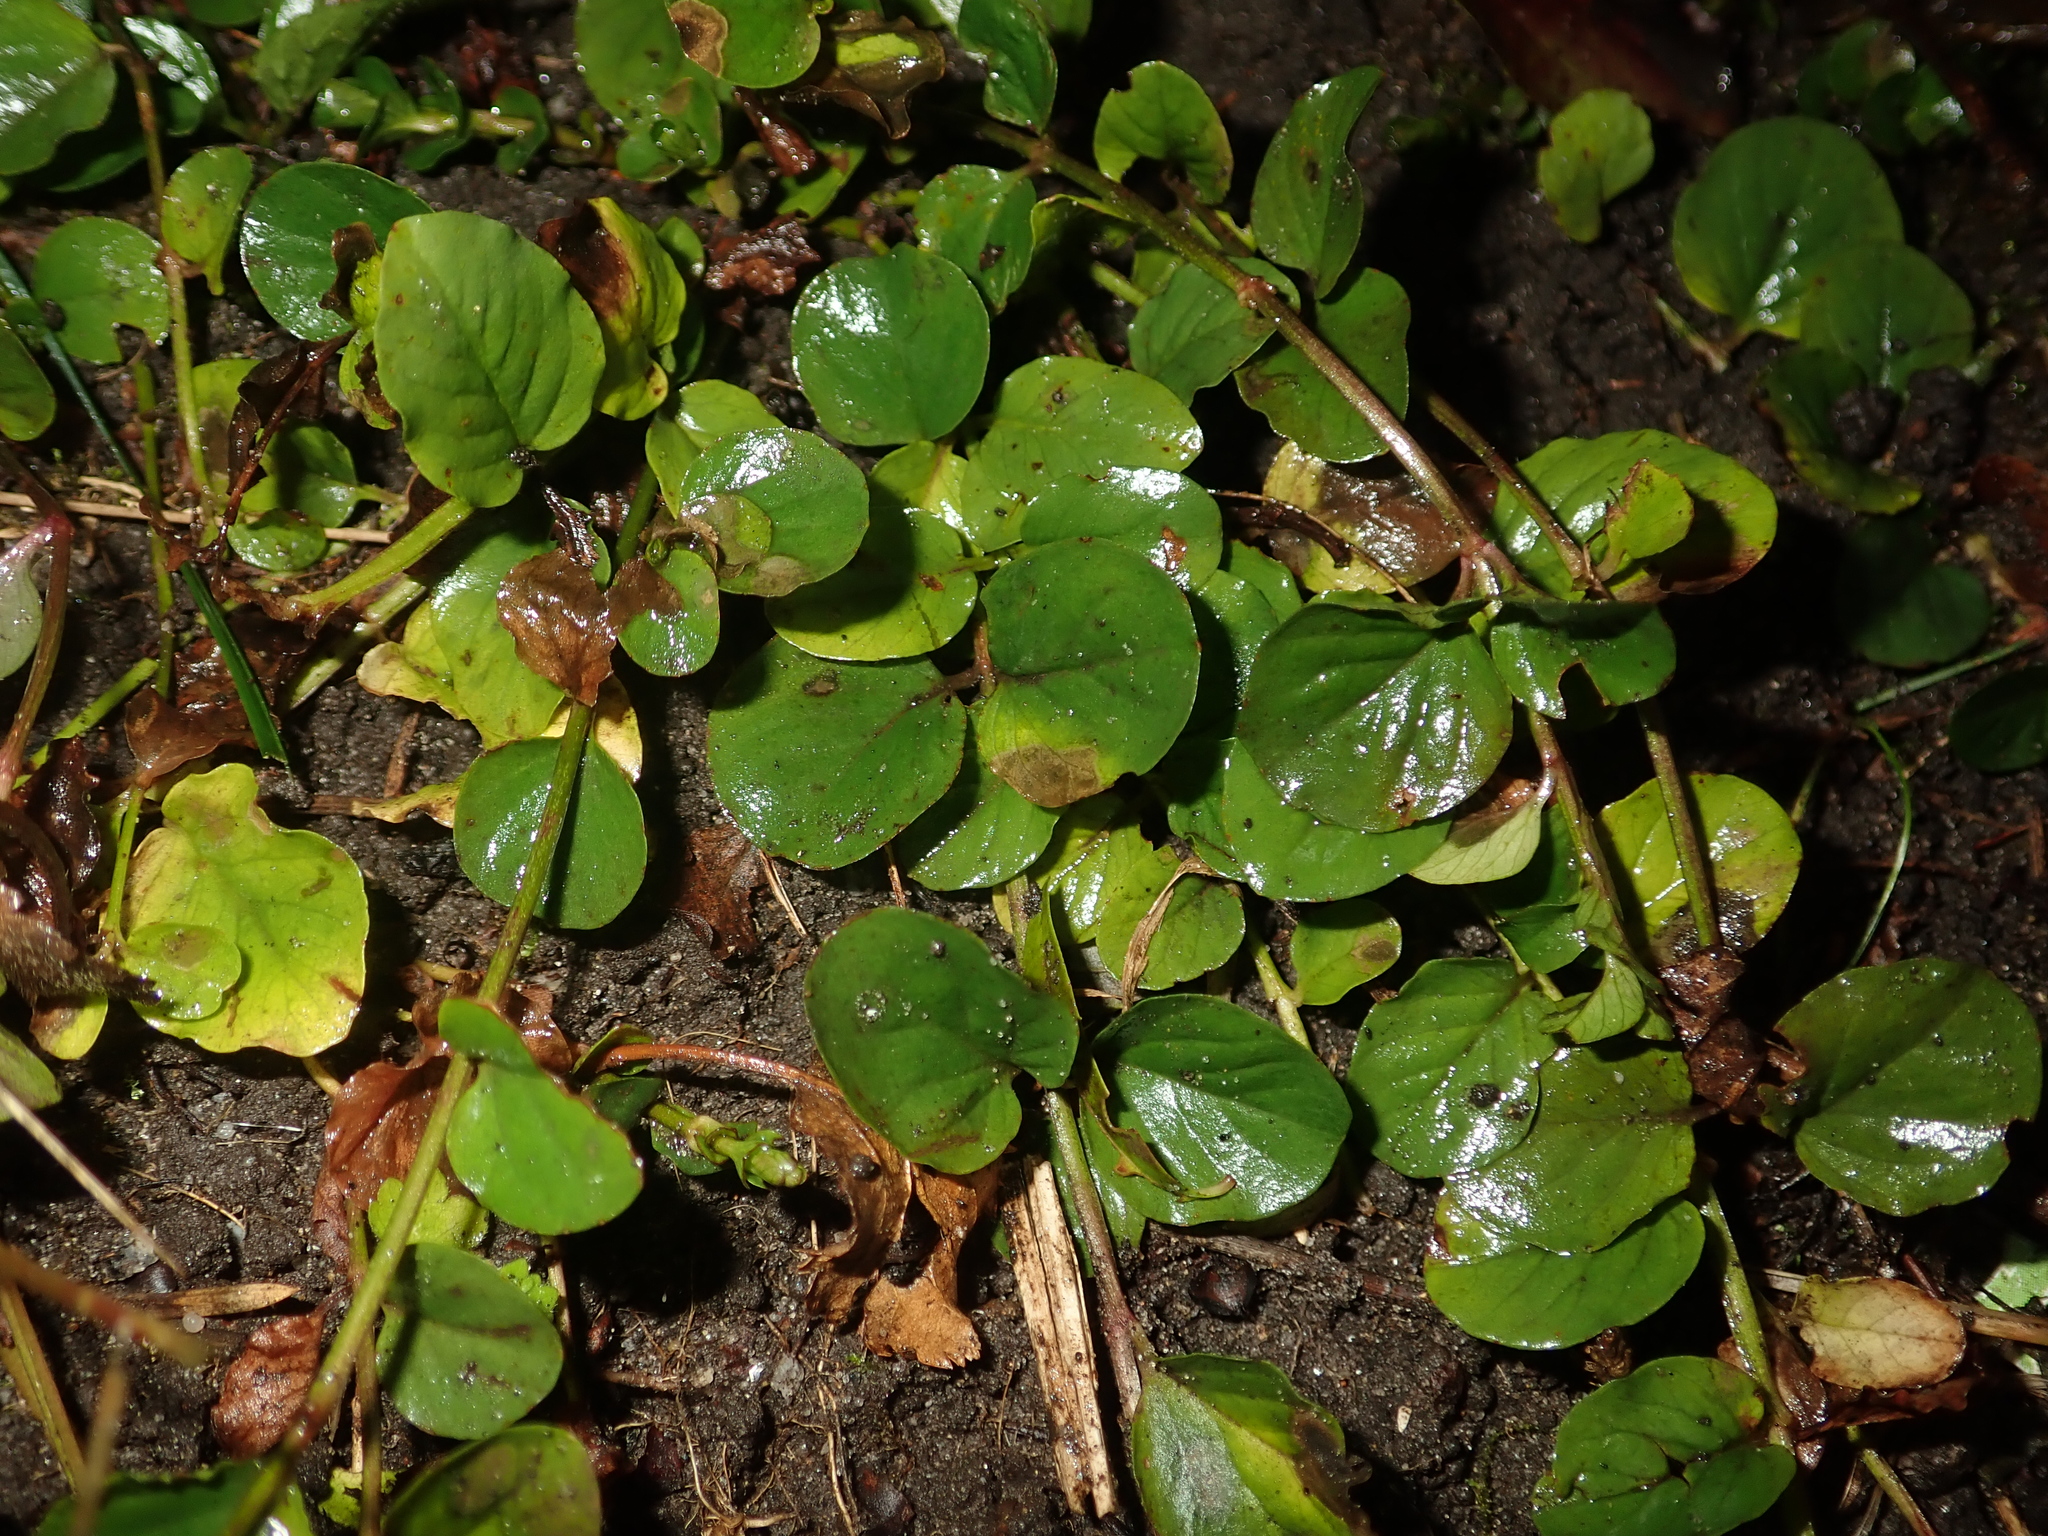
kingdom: Plantae
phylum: Tracheophyta
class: Magnoliopsida
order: Ericales
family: Primulaceae
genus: Lysimachia
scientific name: Lysimachia nummularia
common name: Moneywort
